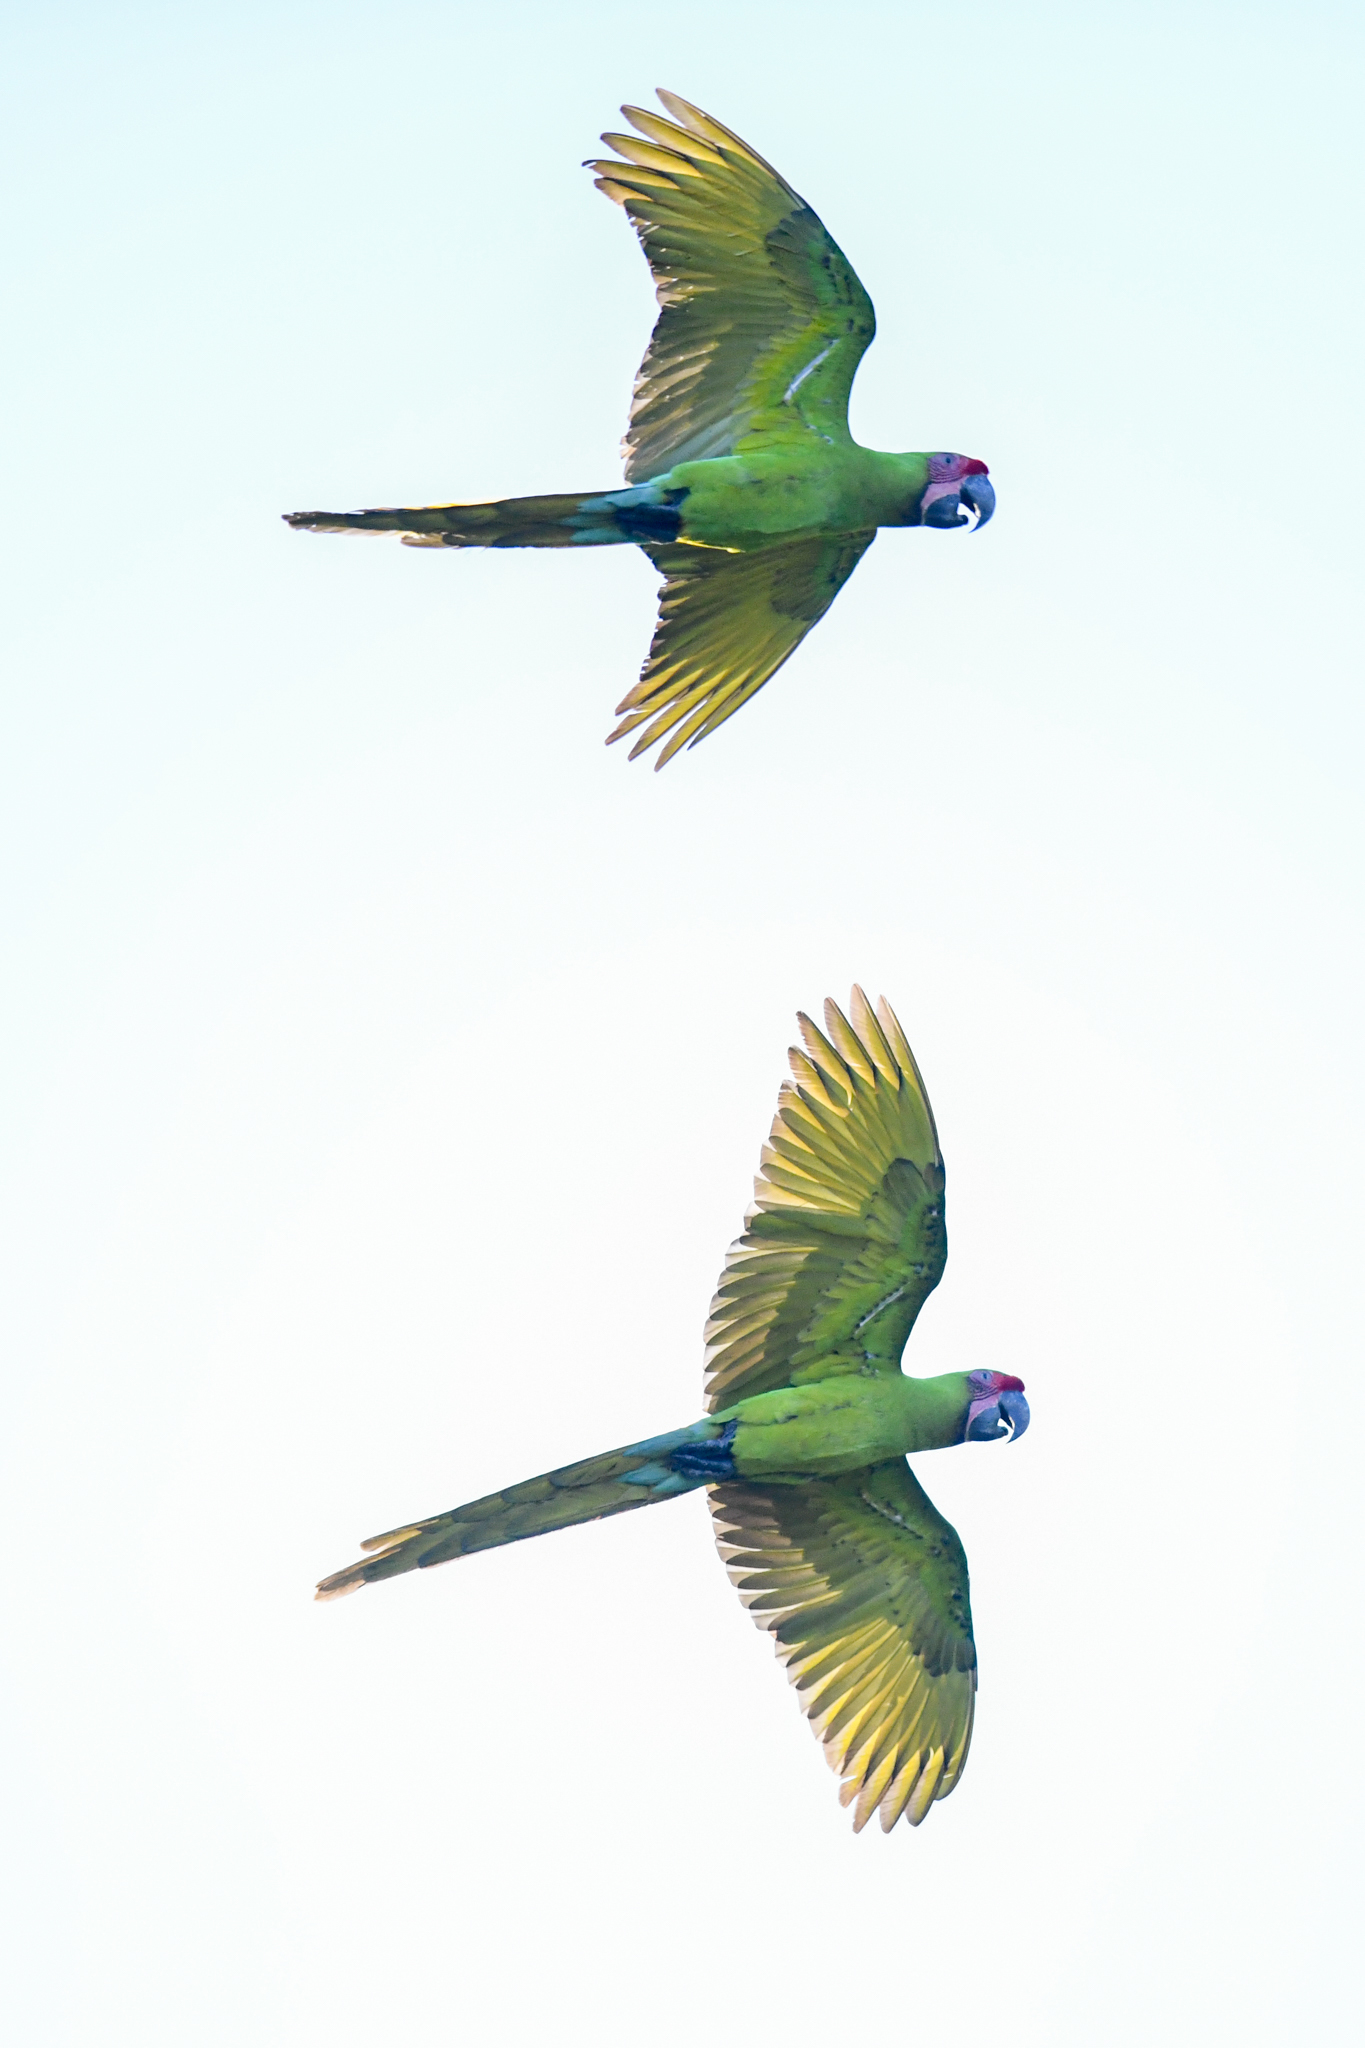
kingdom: Animalia
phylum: Chordata
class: Aves
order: Psittaciformes
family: Psittacidae
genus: Ara
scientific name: Ara ambiguus
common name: Great green macaw
